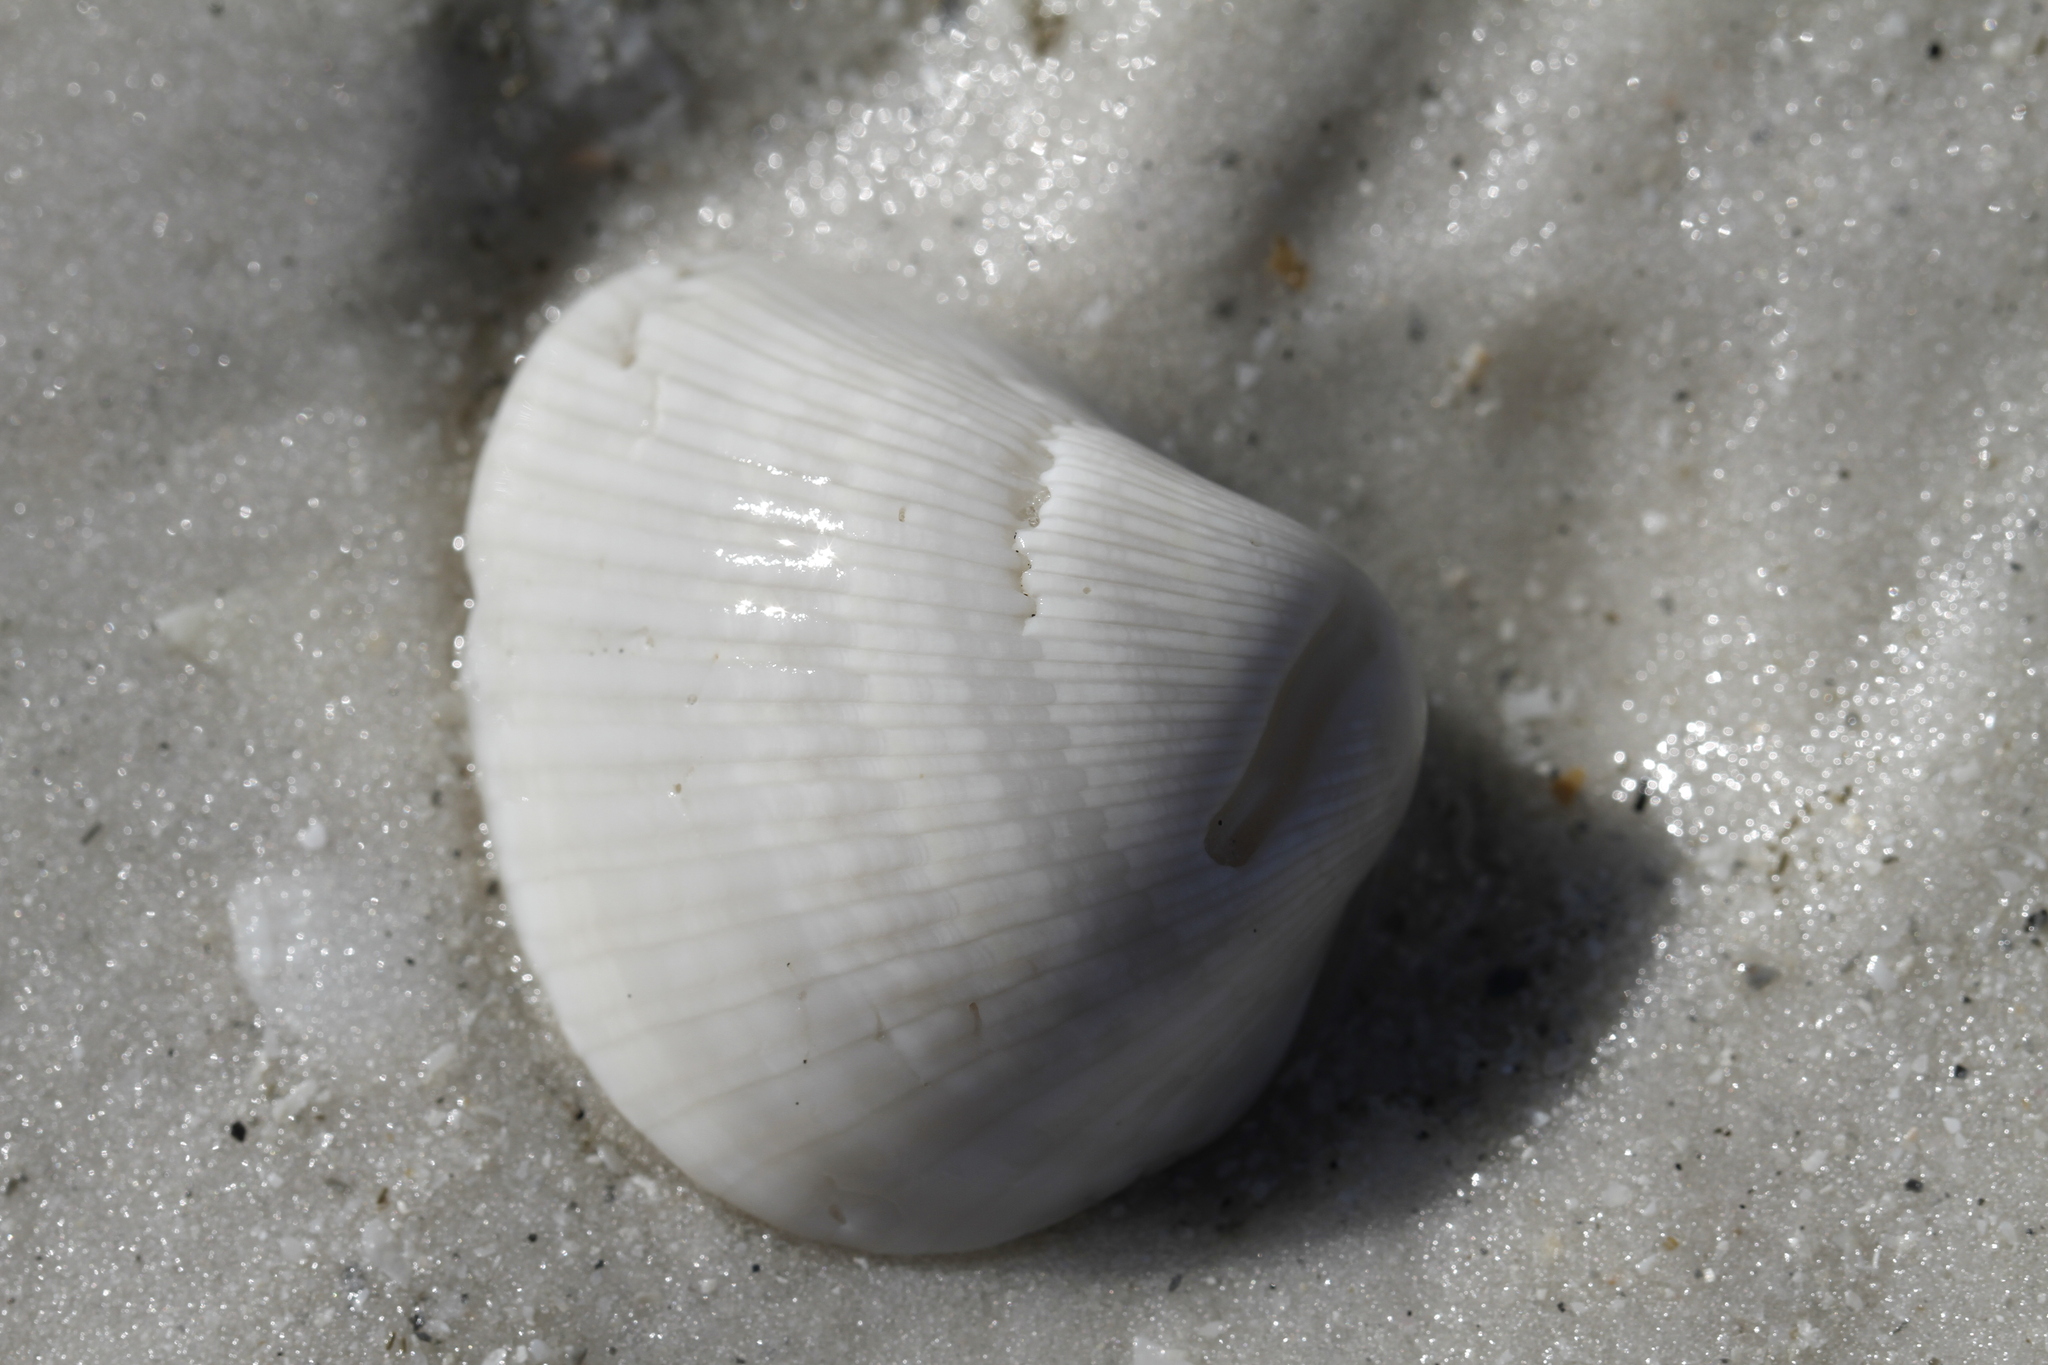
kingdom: Animalia
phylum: Mollusca
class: Bivalvia
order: Arcida
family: Noetiidae
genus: Noetia
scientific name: Noetia ponderosa
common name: Ponderous ark
